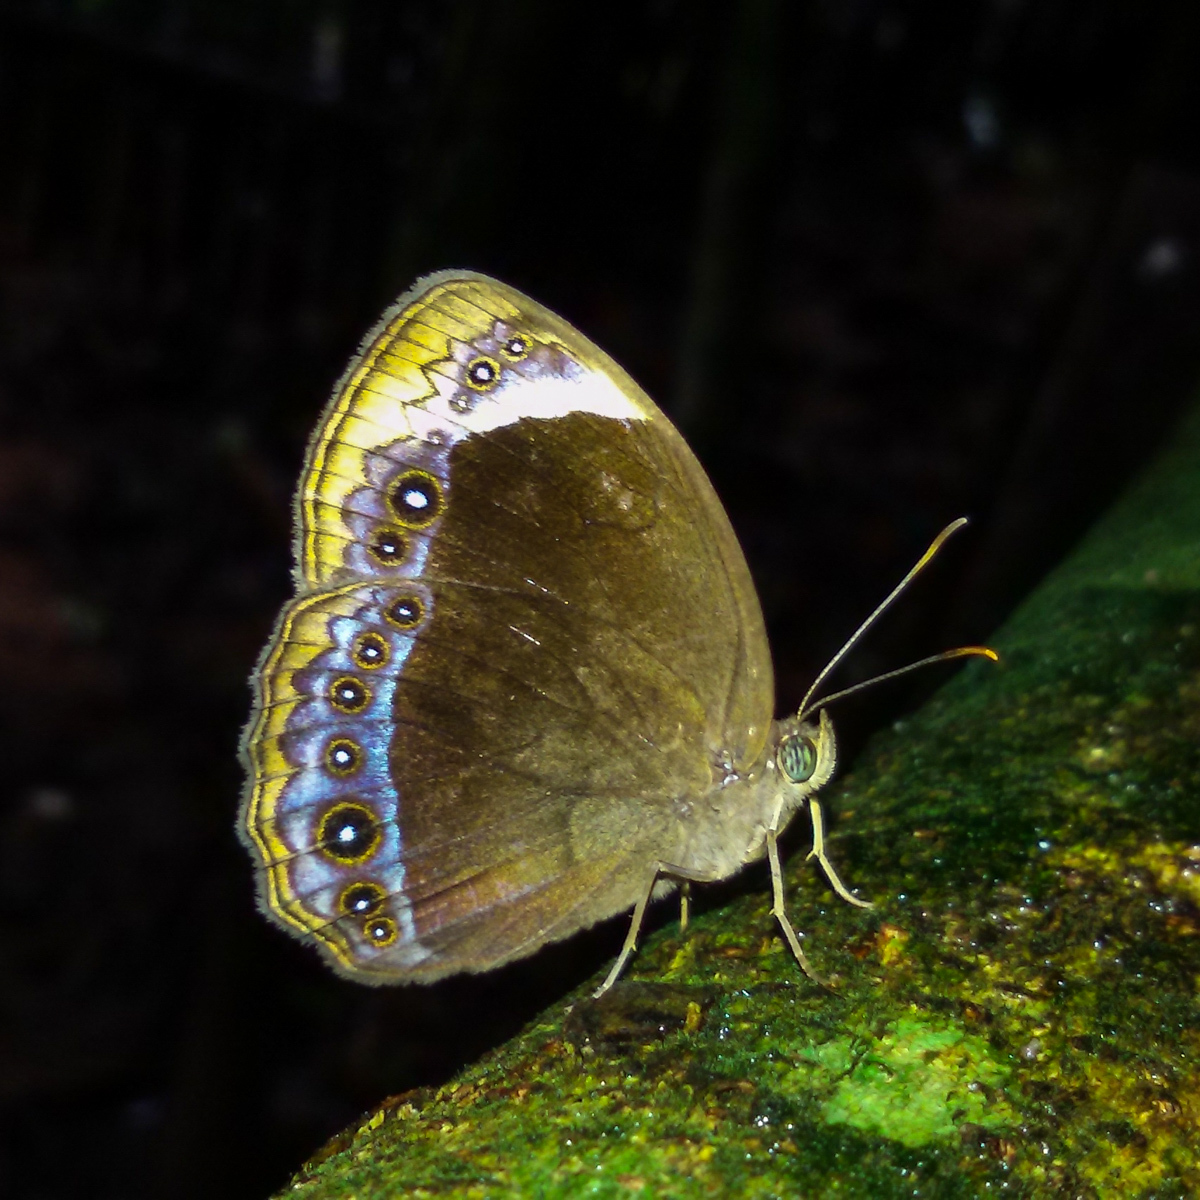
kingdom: Animalia
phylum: Arthropoda
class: Insecta
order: Lepidoptera
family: Nymphalidae
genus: Mycalesis
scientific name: Mycalesis anaxioides
